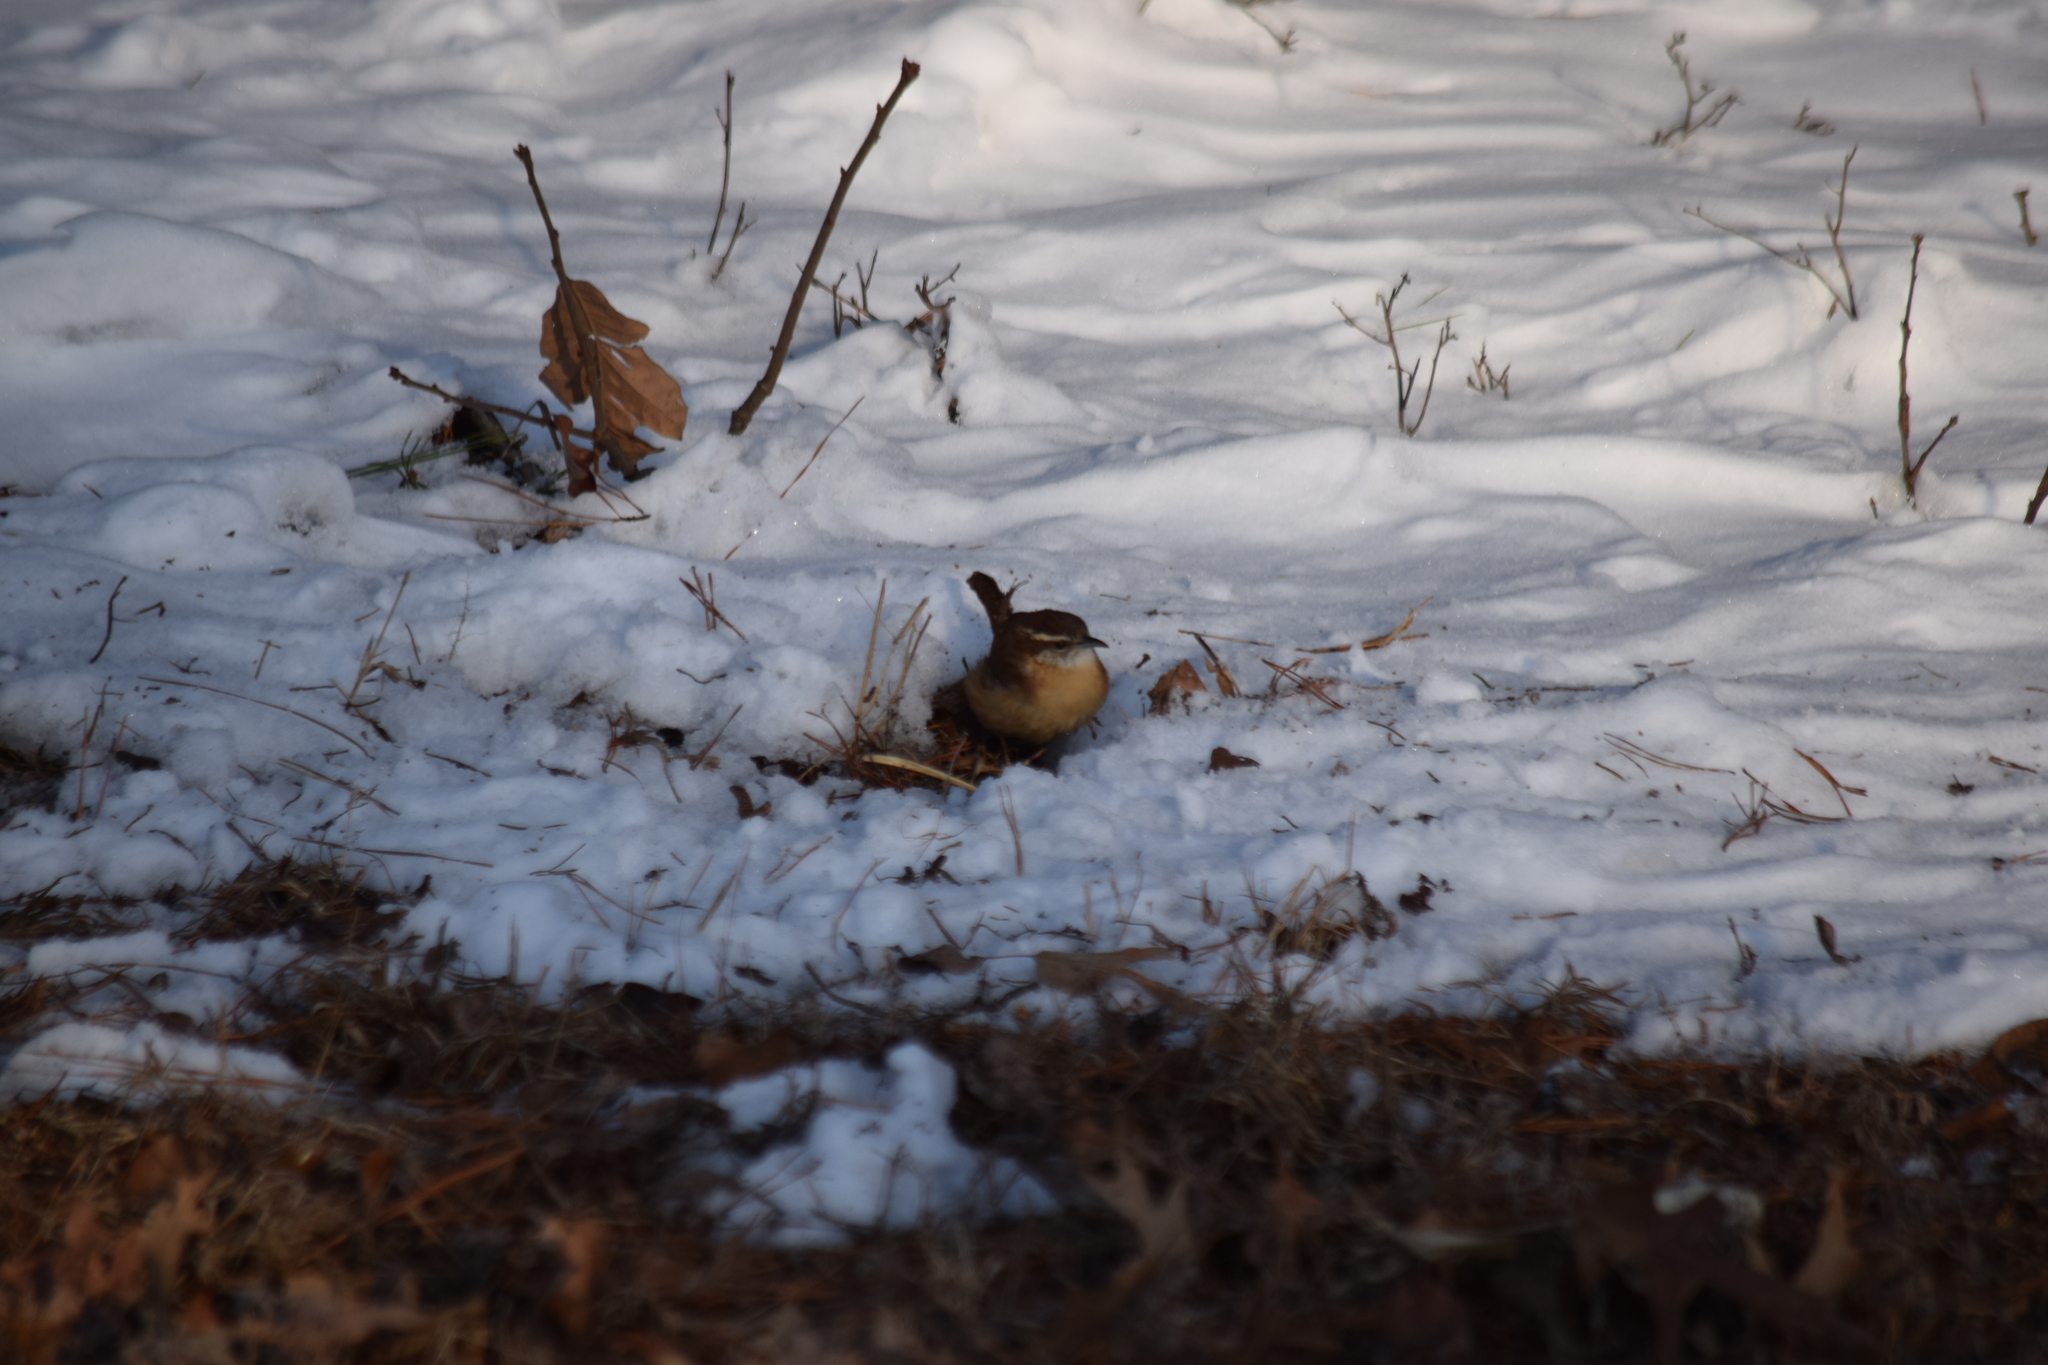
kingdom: Animalia
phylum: Chordata
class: Aves
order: Passeriformes
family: Troglodytidae
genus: Thryothorus
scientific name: Thryothorus ludovicianus
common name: Carolina wren
